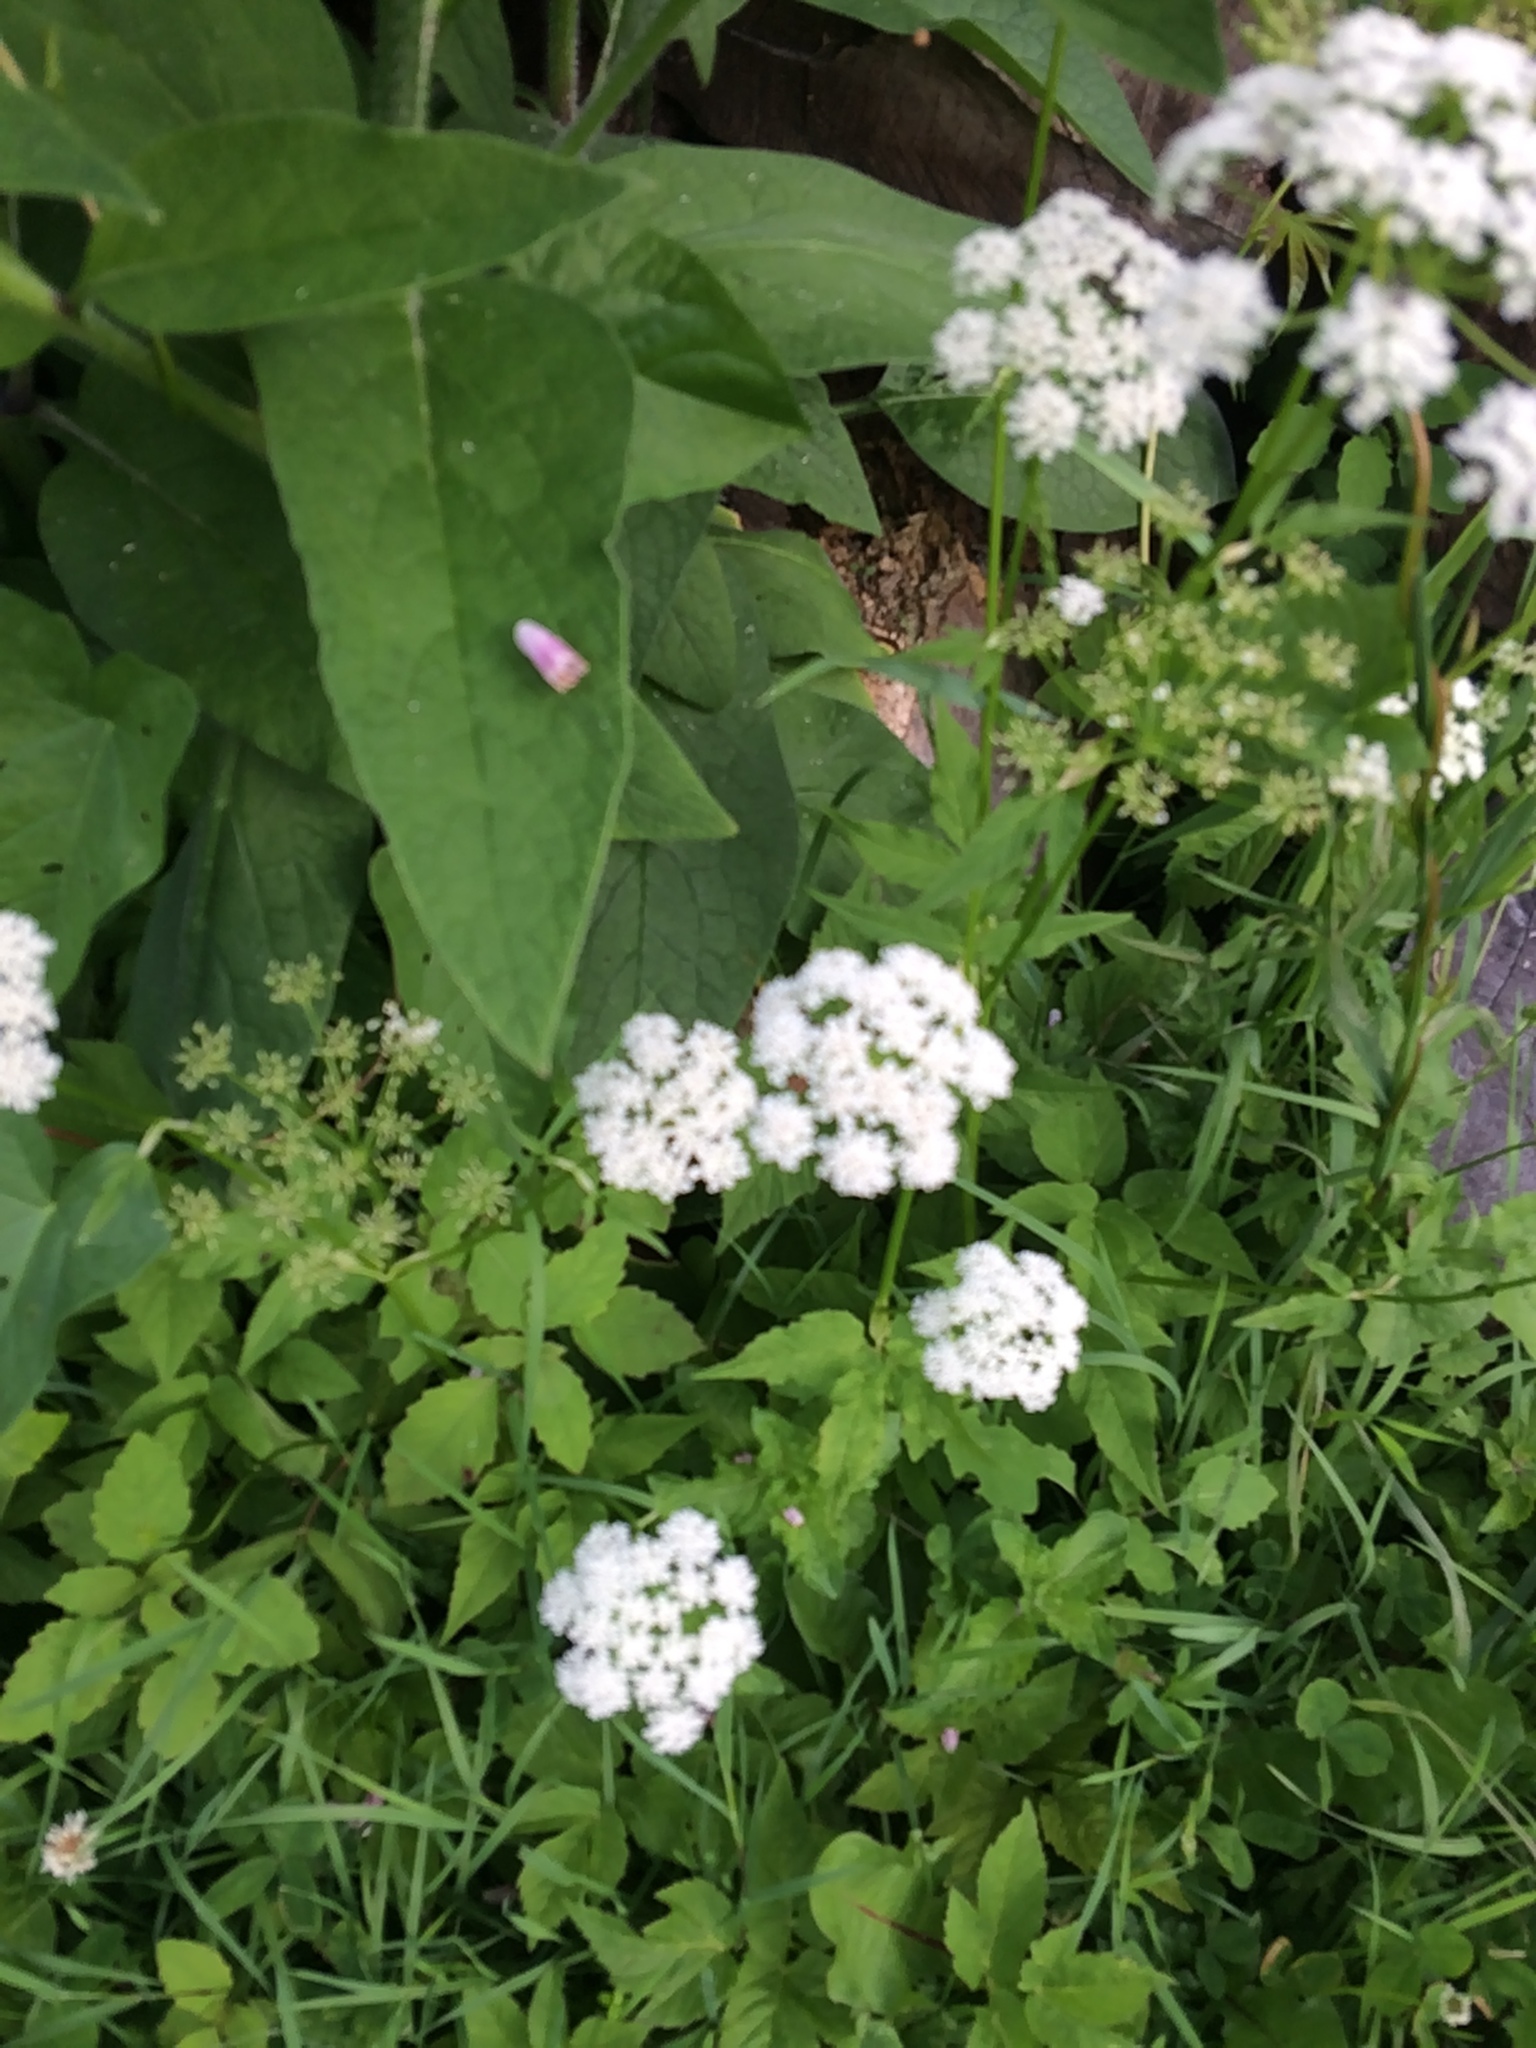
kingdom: Plantae
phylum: Tracheophyta
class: Magnoliopsida
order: Apiales
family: Apiaceae
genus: Aegopodium
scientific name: Aegopodium podagraria
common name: Ground-elder
